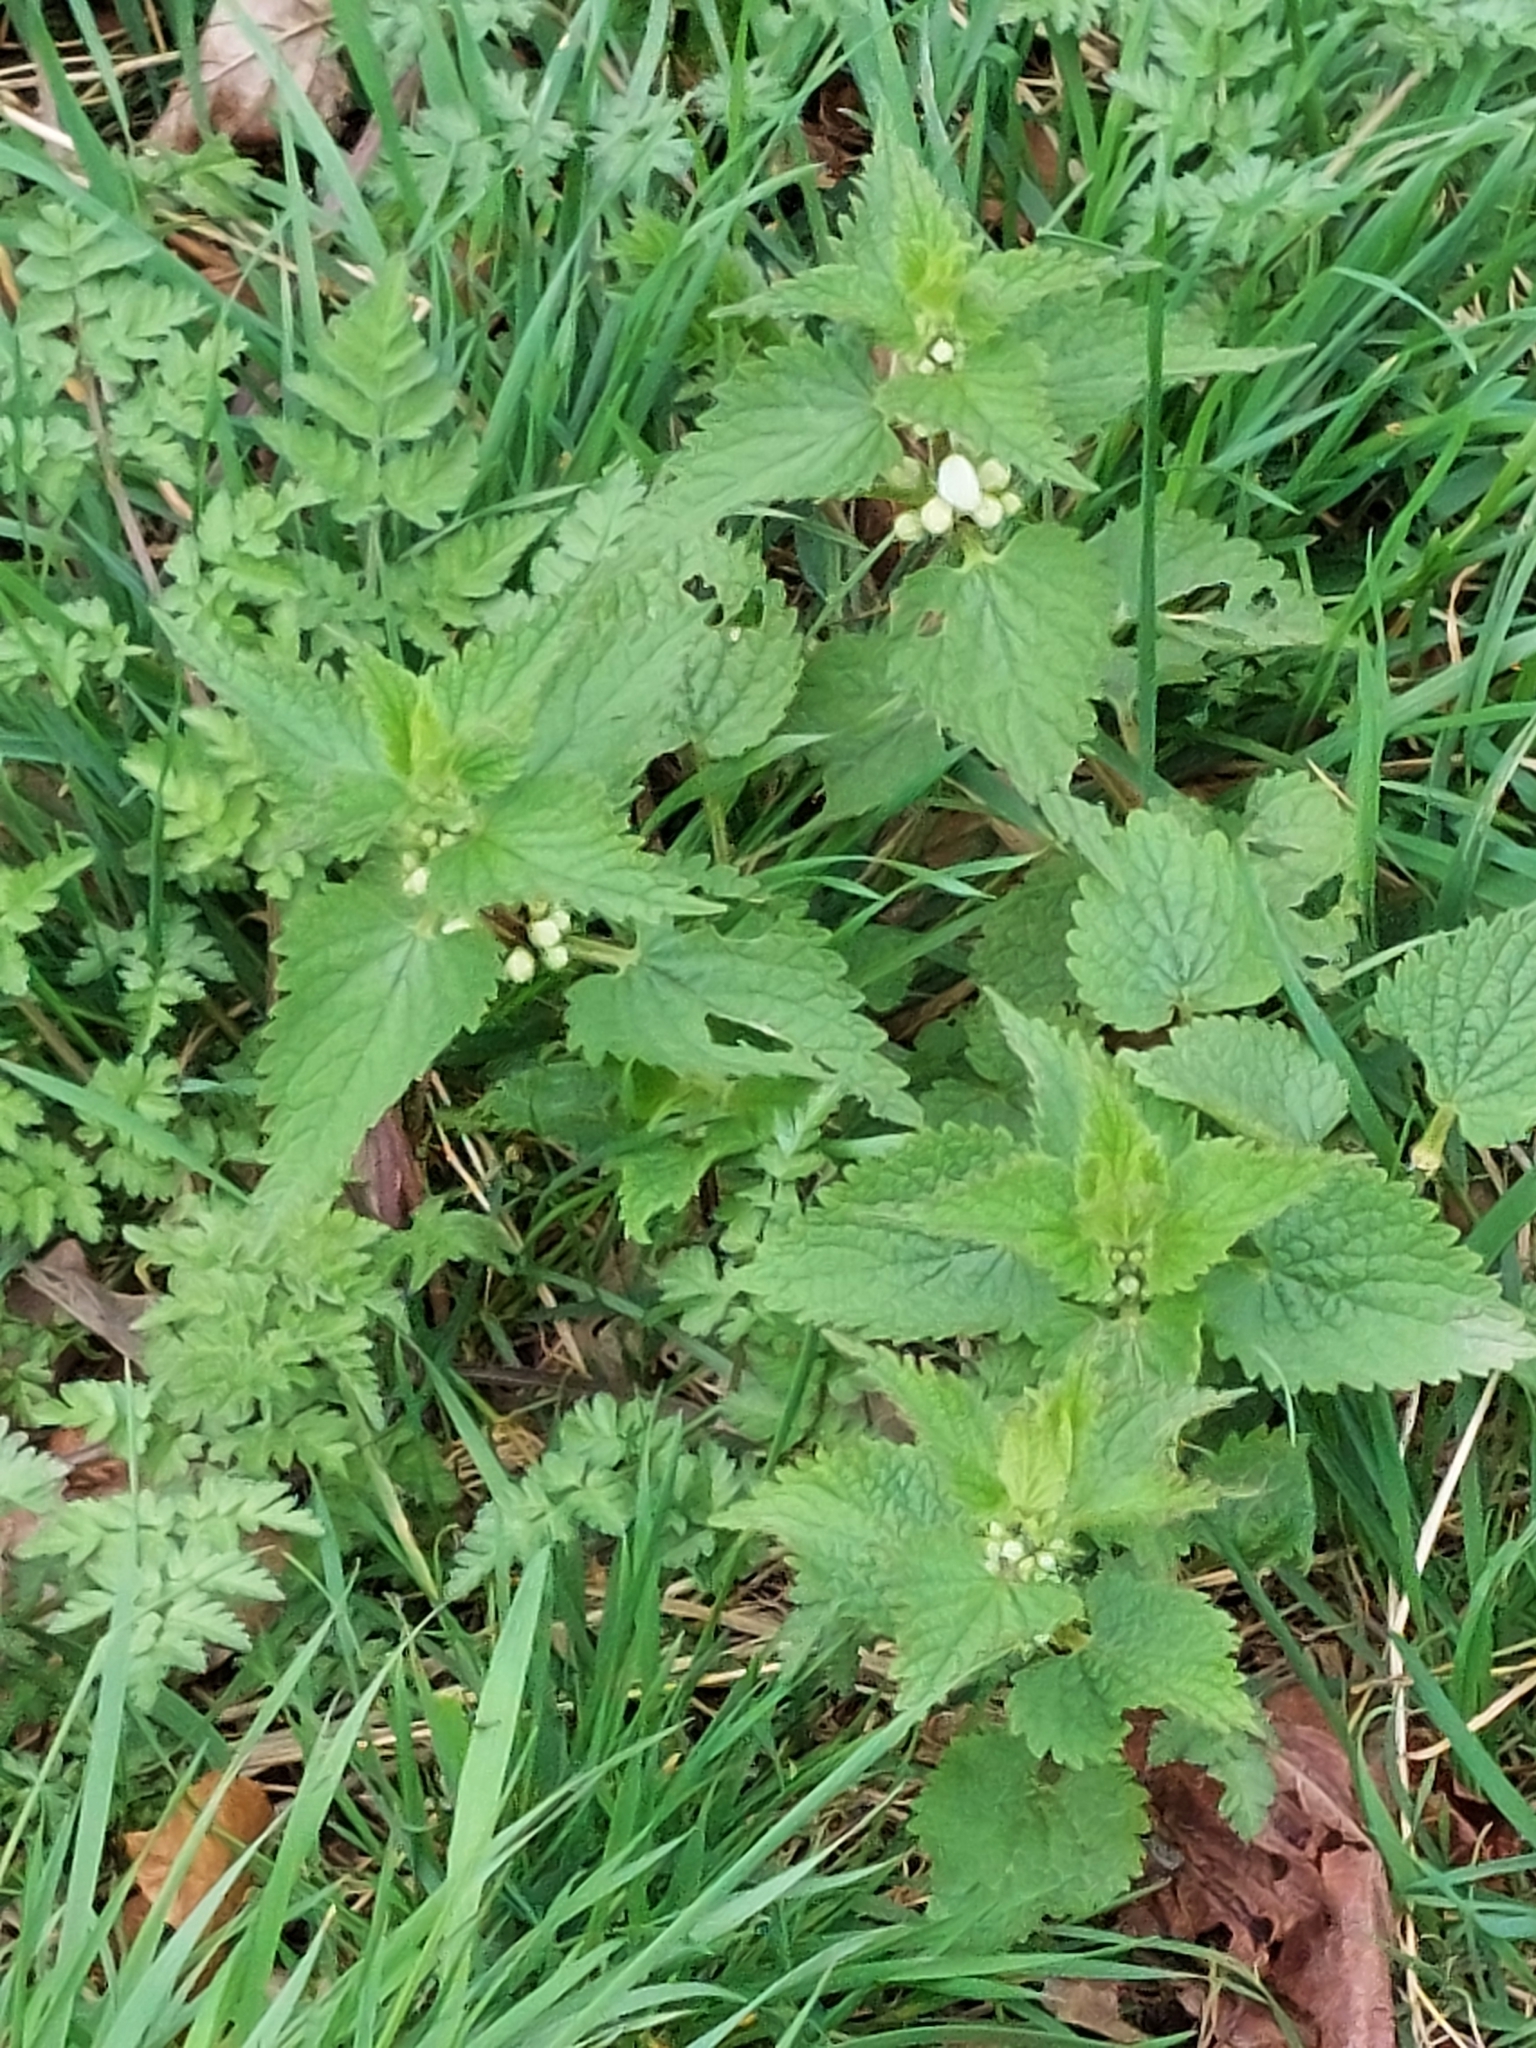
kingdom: Plantae
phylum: Tracheophyta
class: Magnoliopsida
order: Lamiales
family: Lamiaceae
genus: Lamium
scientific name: Lamium album
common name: White dead-nettle
